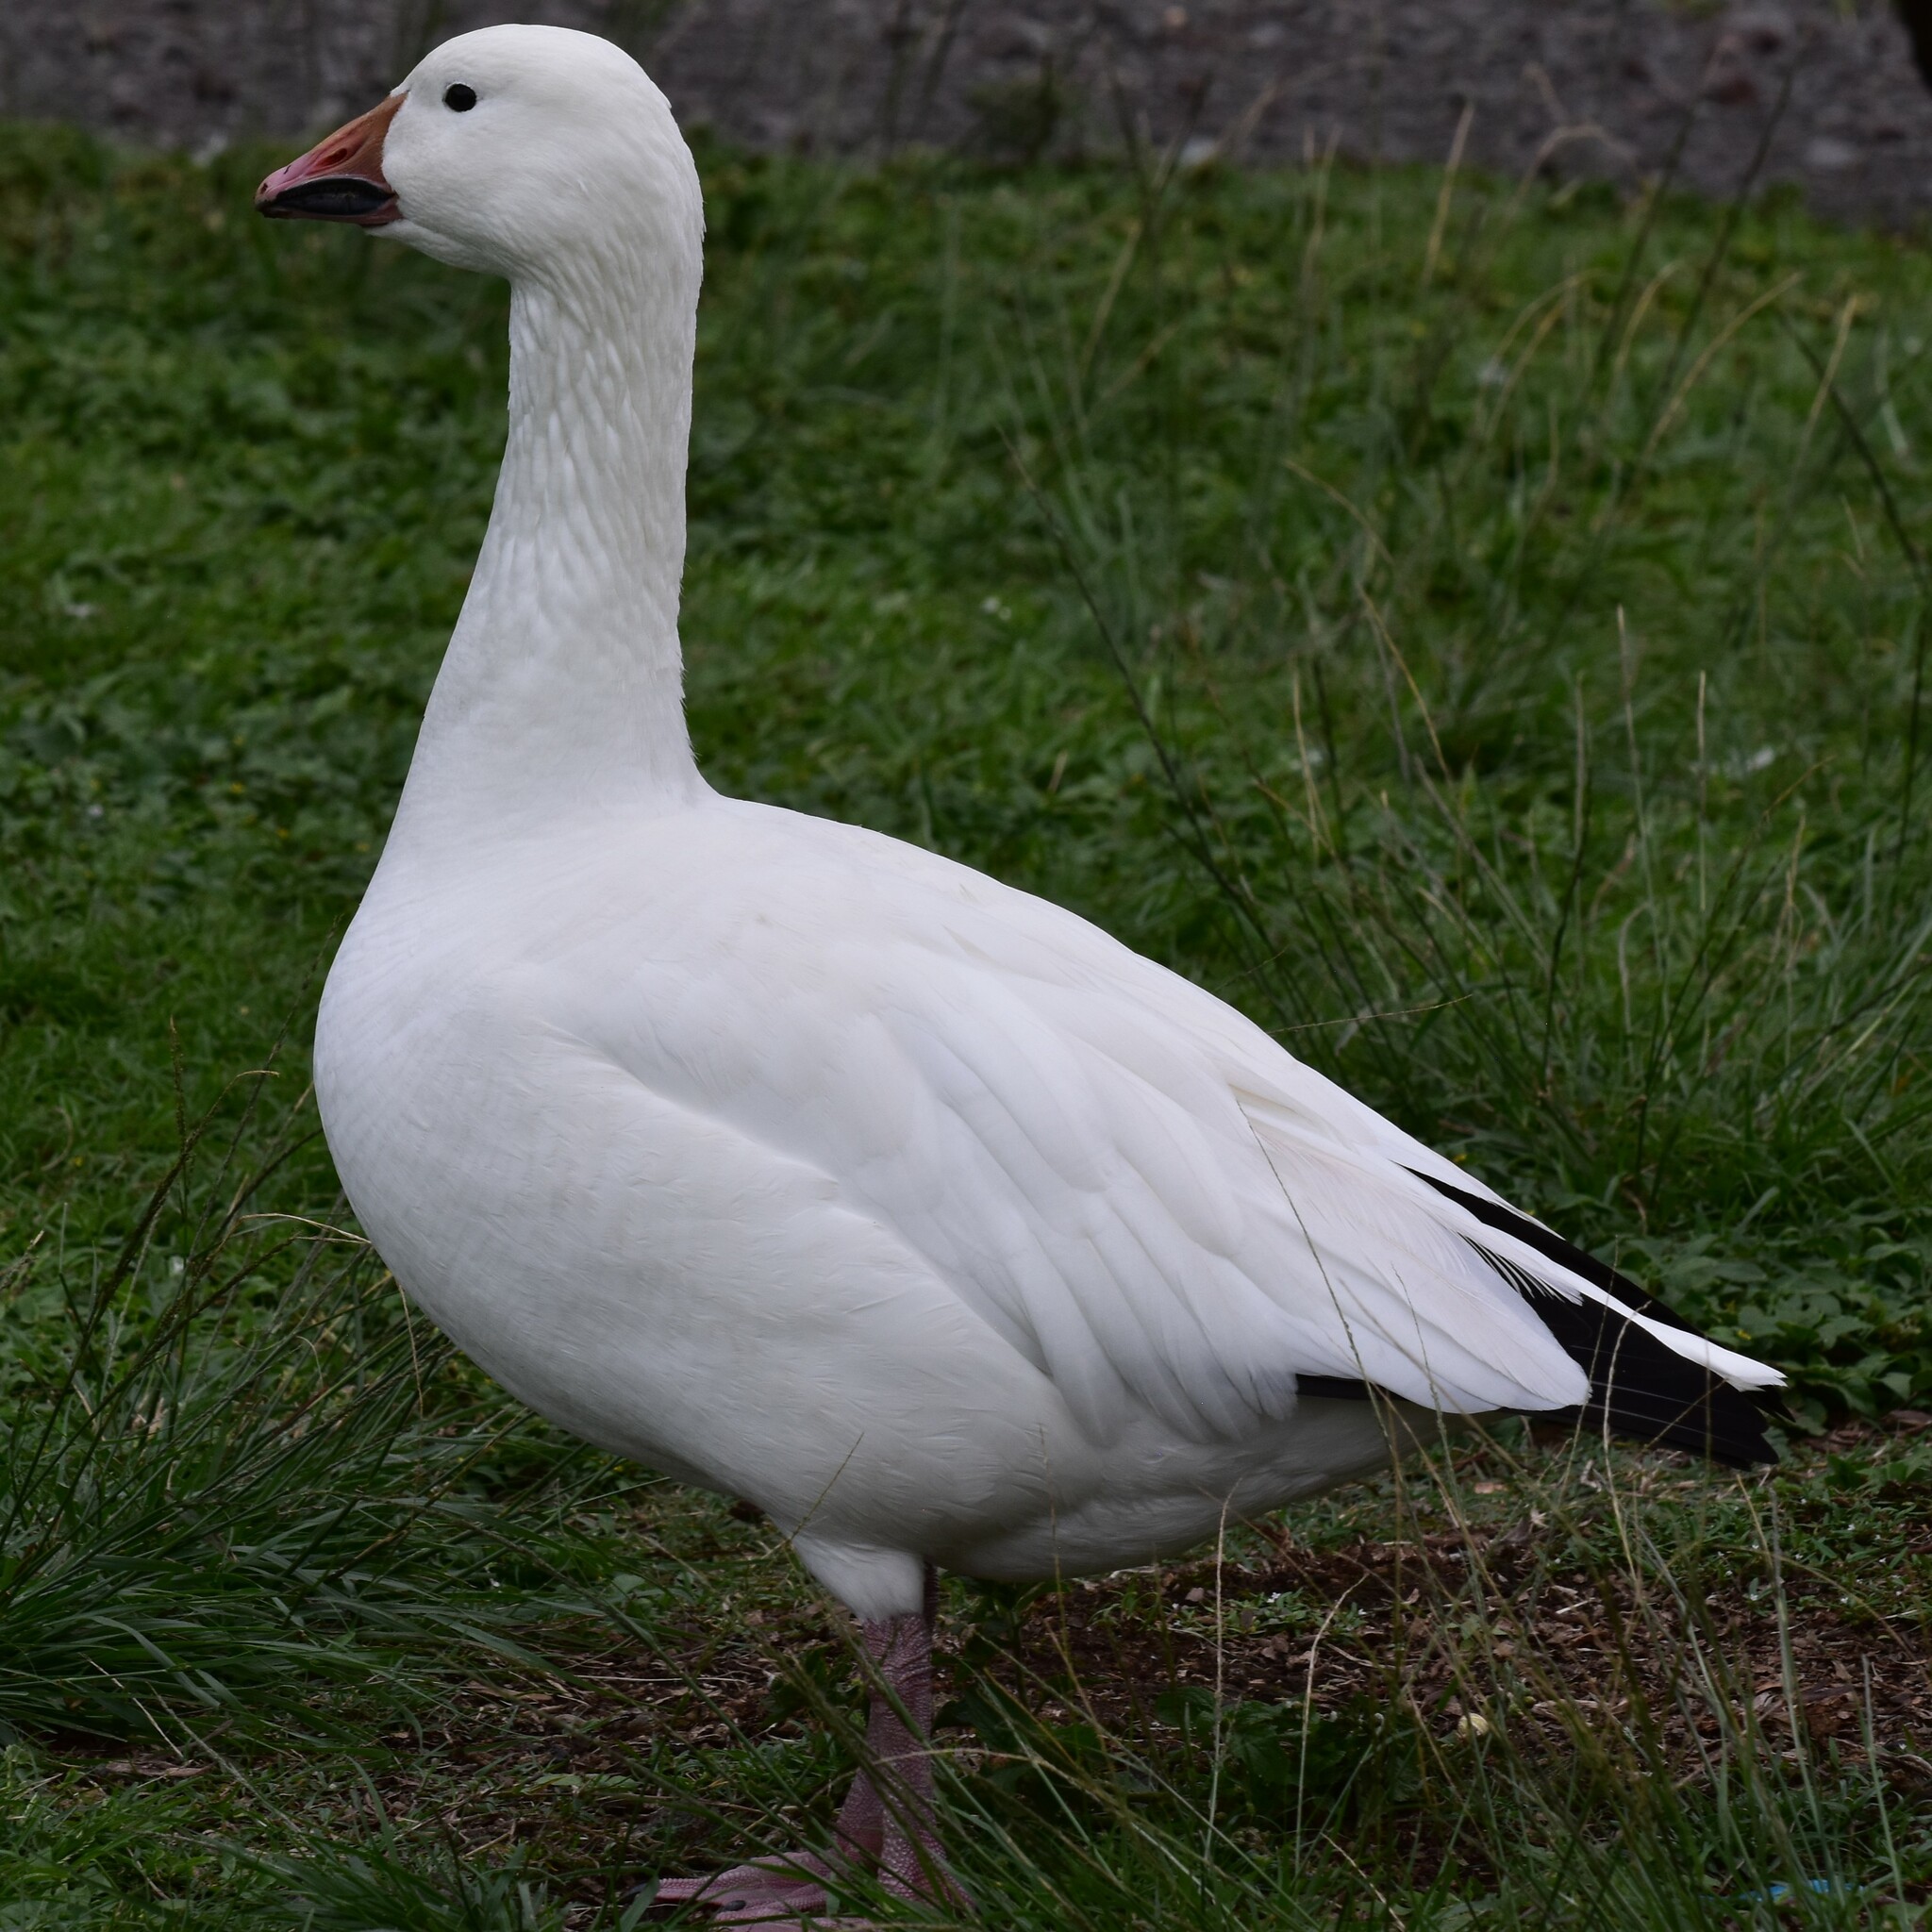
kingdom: Animalia
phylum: Chordata
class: Aves
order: Anseriformes
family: Anatidae
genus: Anser
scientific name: Anser caerulescens
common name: Snow goose
